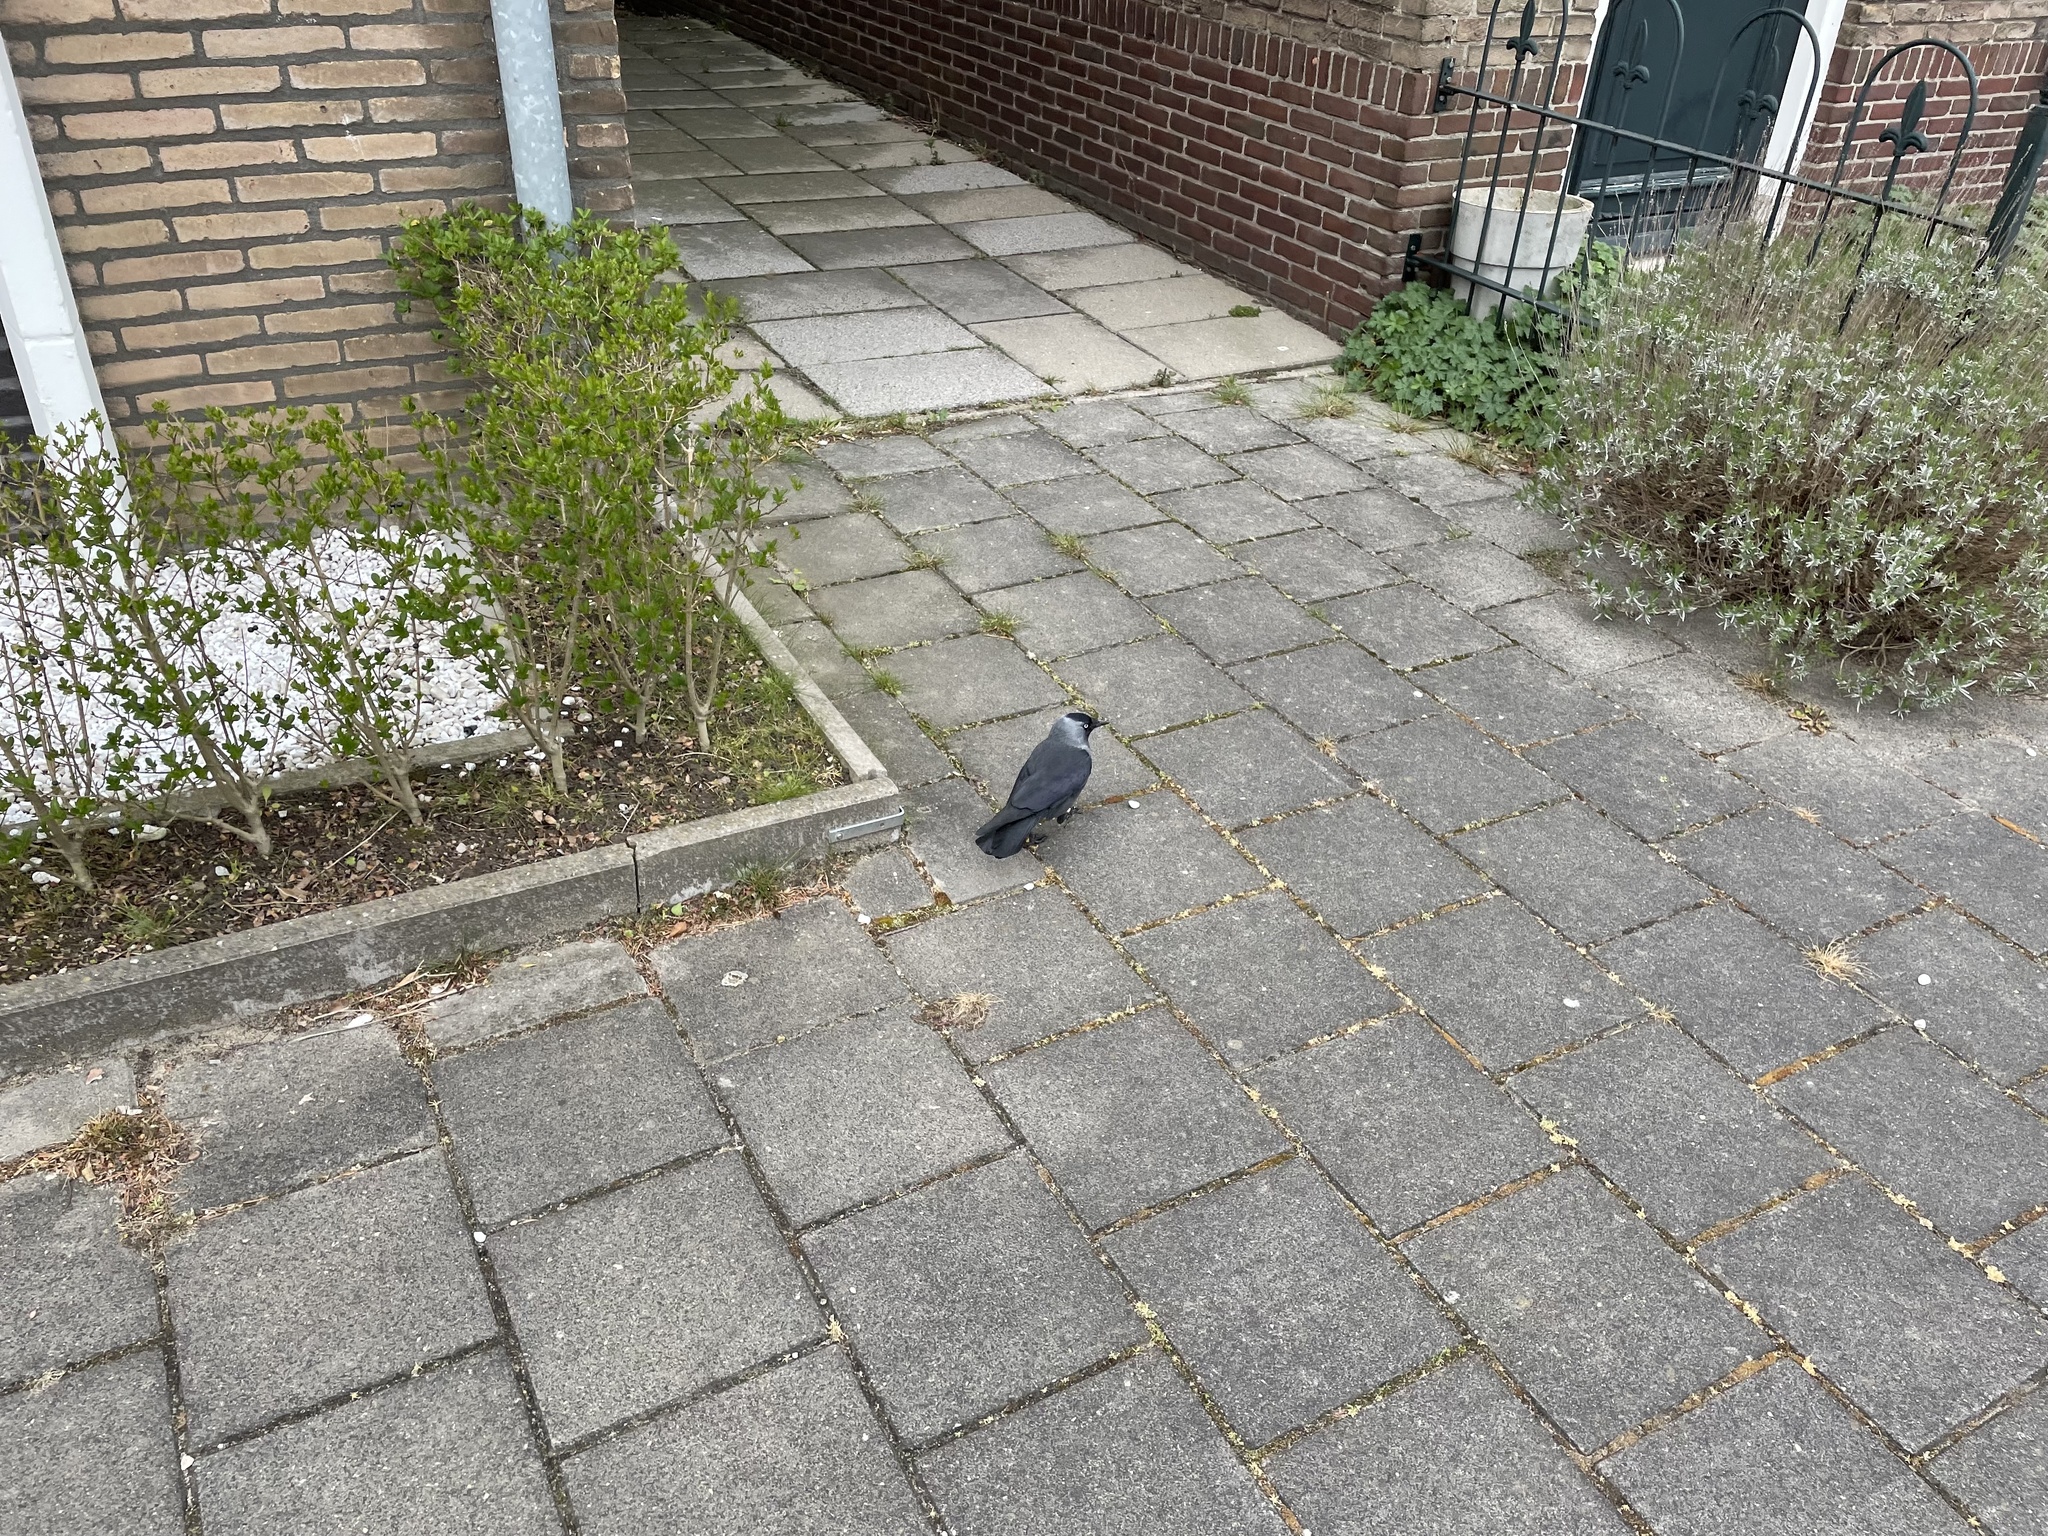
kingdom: Animalia
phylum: Chordata
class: Aves
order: Passeriformes
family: Corvidae
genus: Coloeus
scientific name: Coloeus monedula
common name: Western jackdaw
